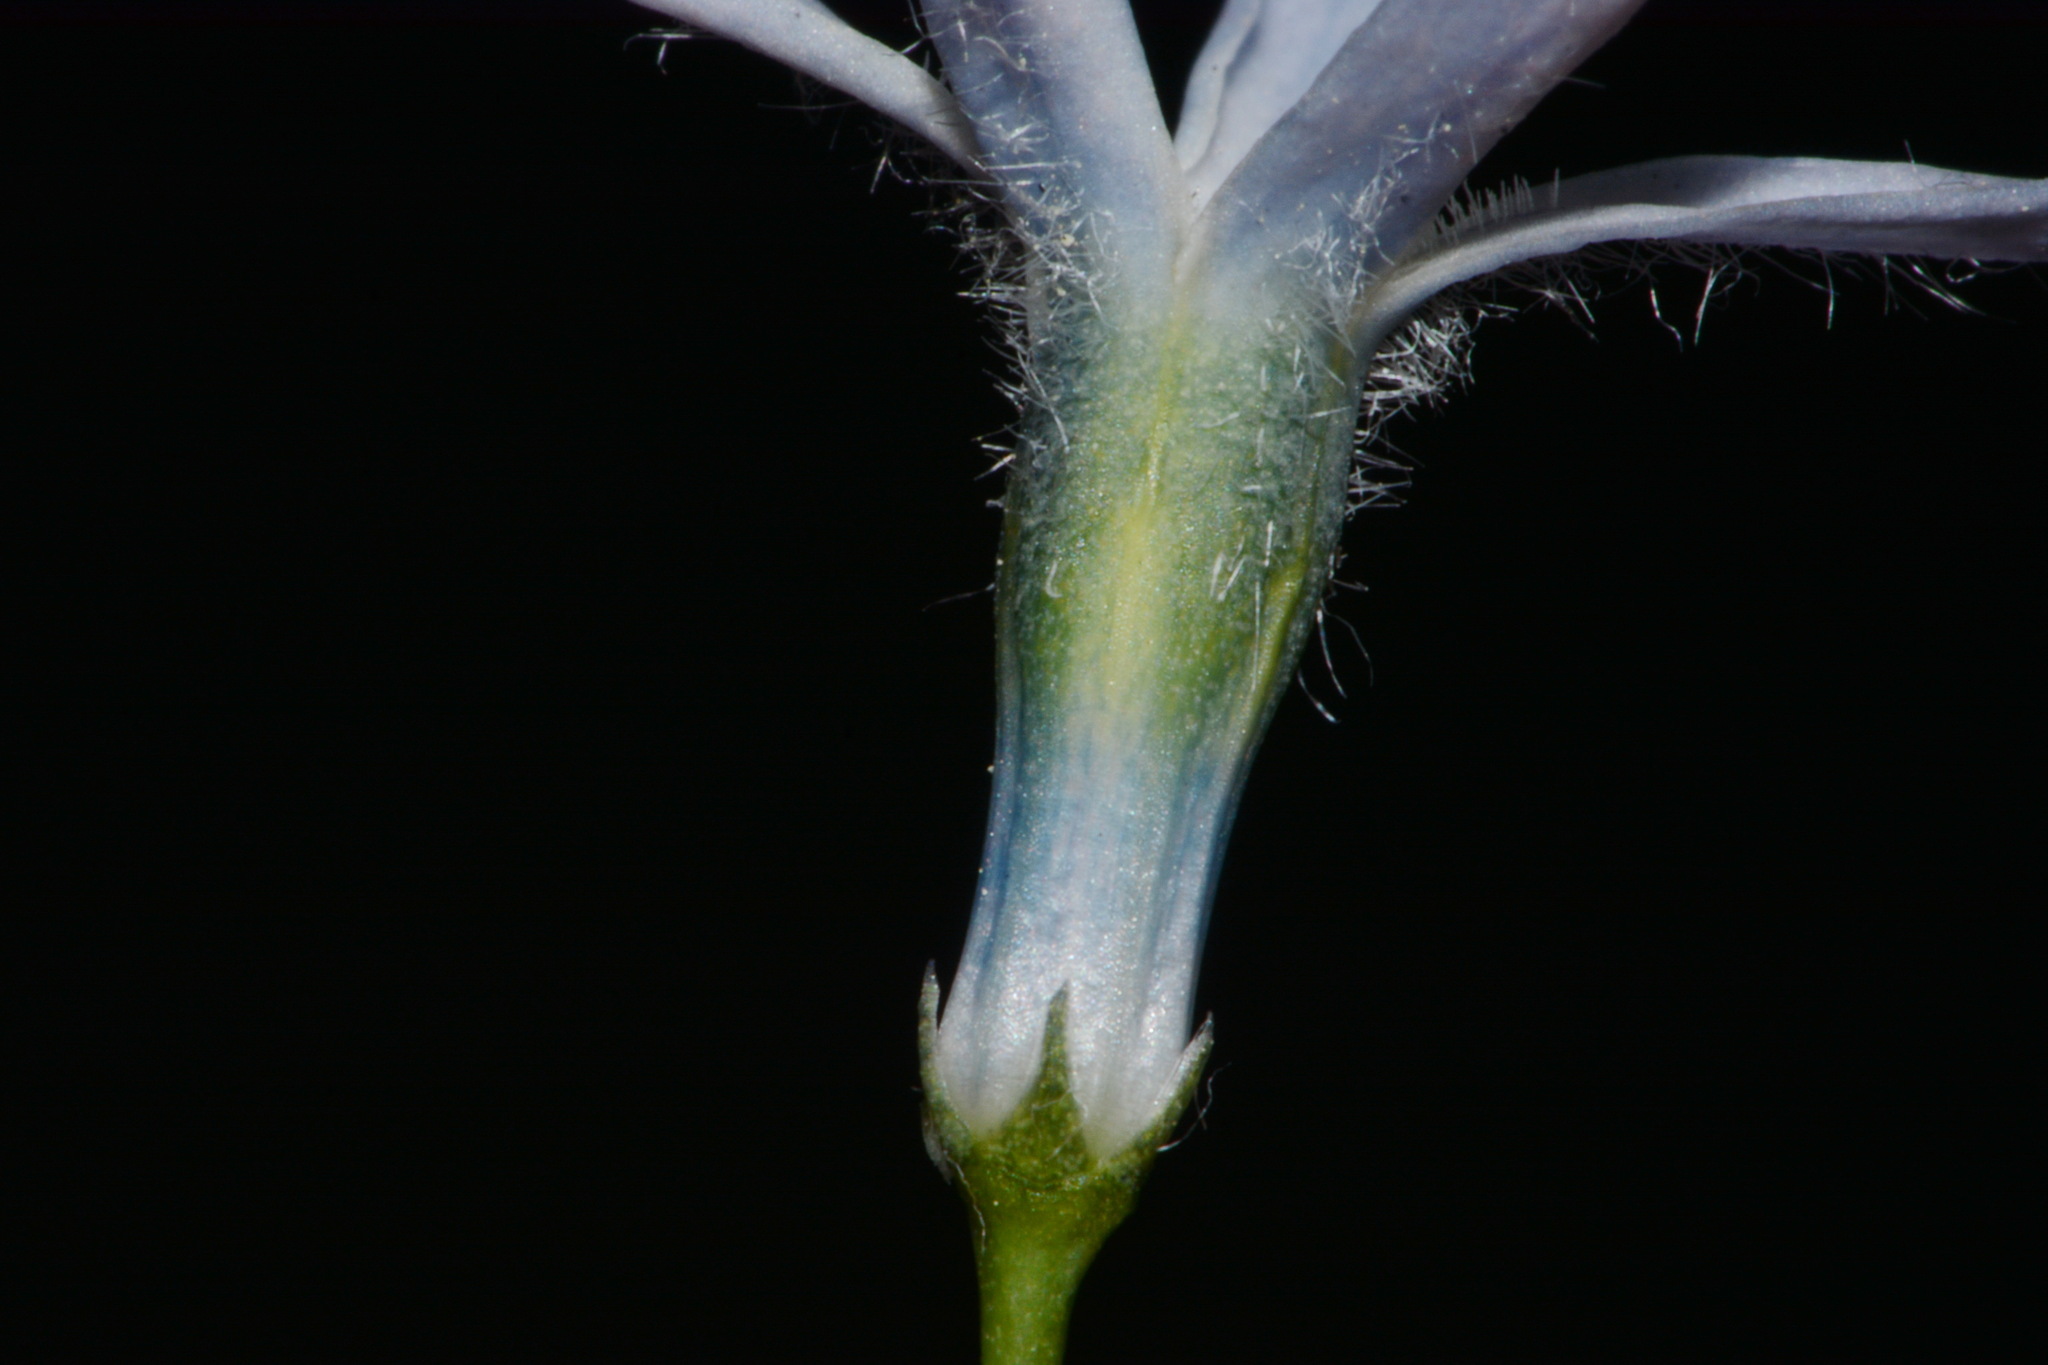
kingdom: Plantae
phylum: Tracheophyta
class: Magnoliopsida
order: Gentianales
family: Apocynaceae
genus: Amsonia
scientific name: Amsonia tabernaemontana
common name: Texas-star
